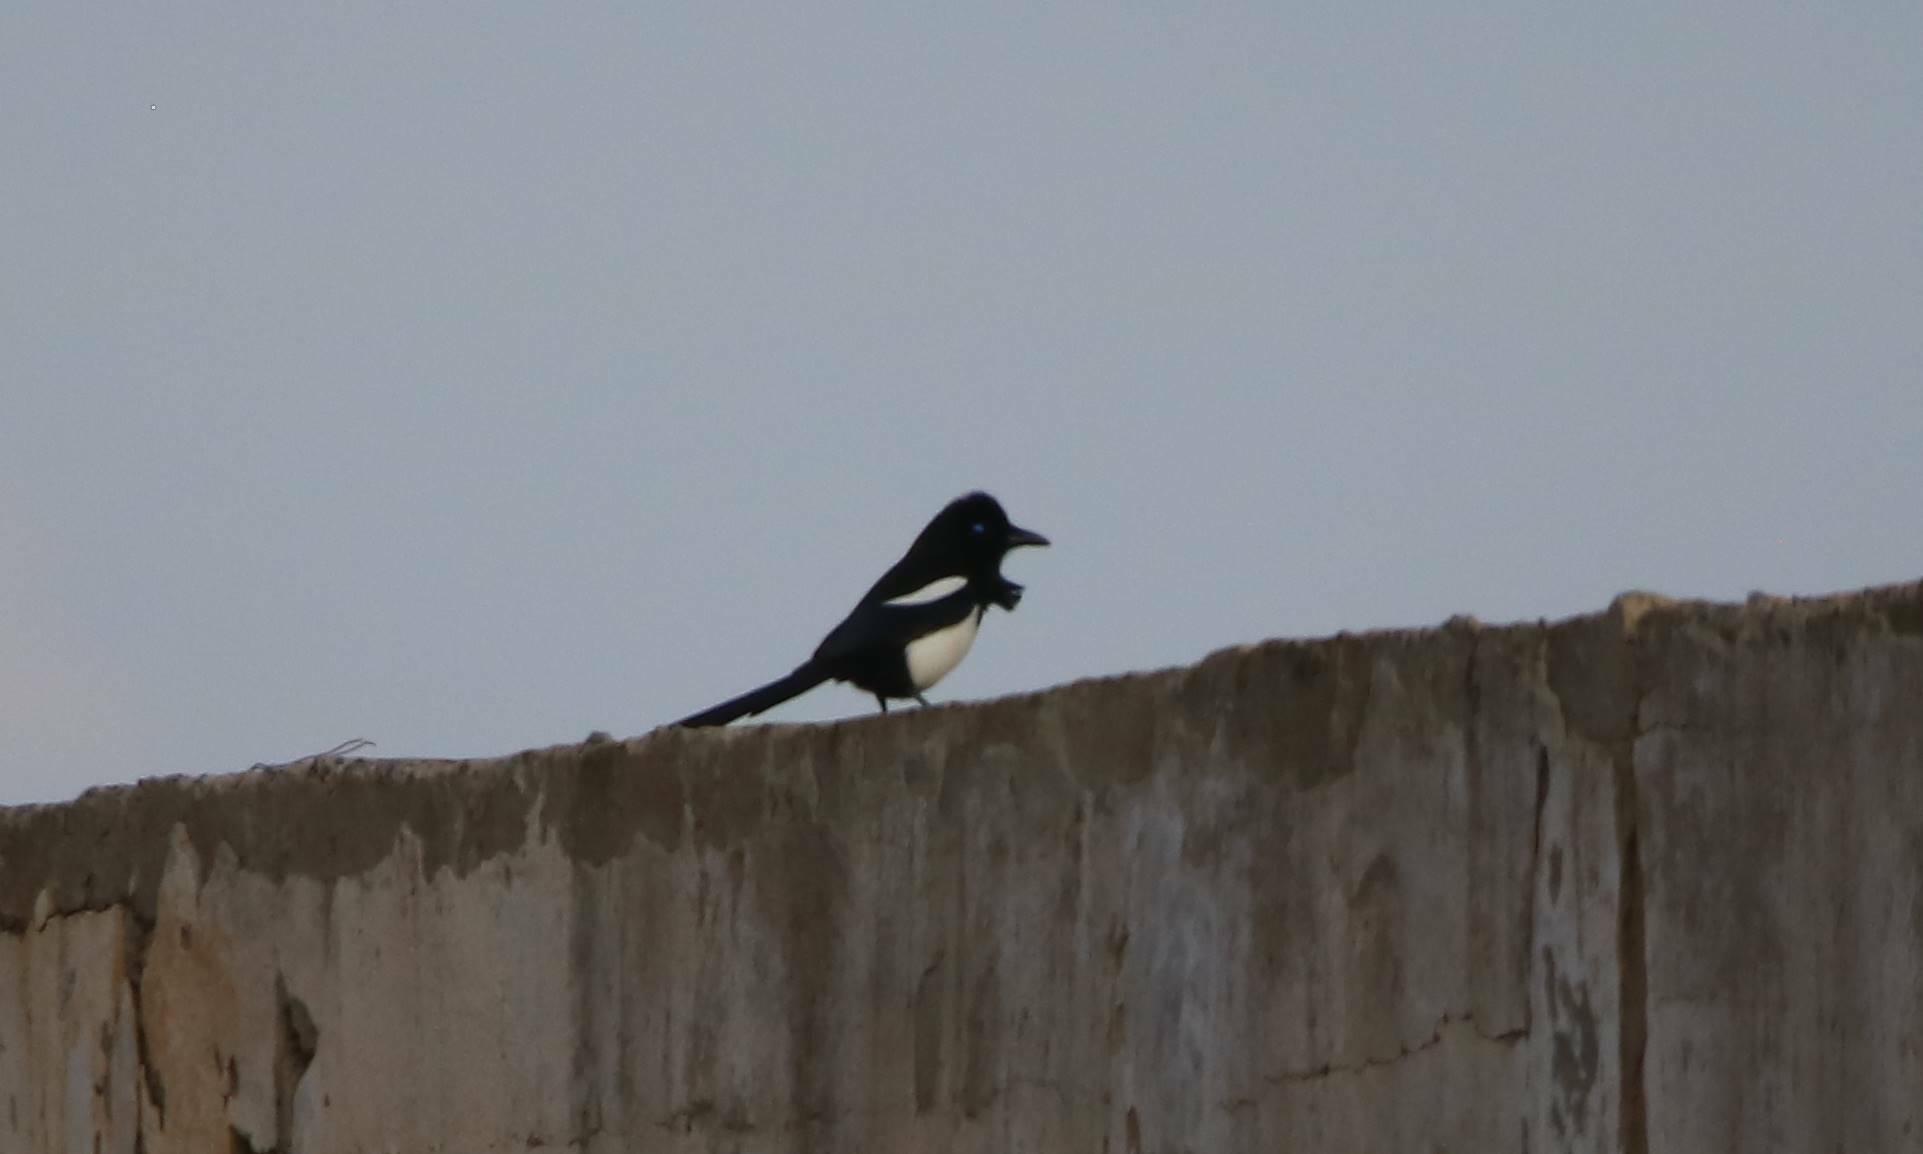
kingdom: Animalia
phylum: Chordata
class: Aves
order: Passeriformes
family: Corvidae
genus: Pica
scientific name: Pica mauritanica
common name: Maghreb magpie
